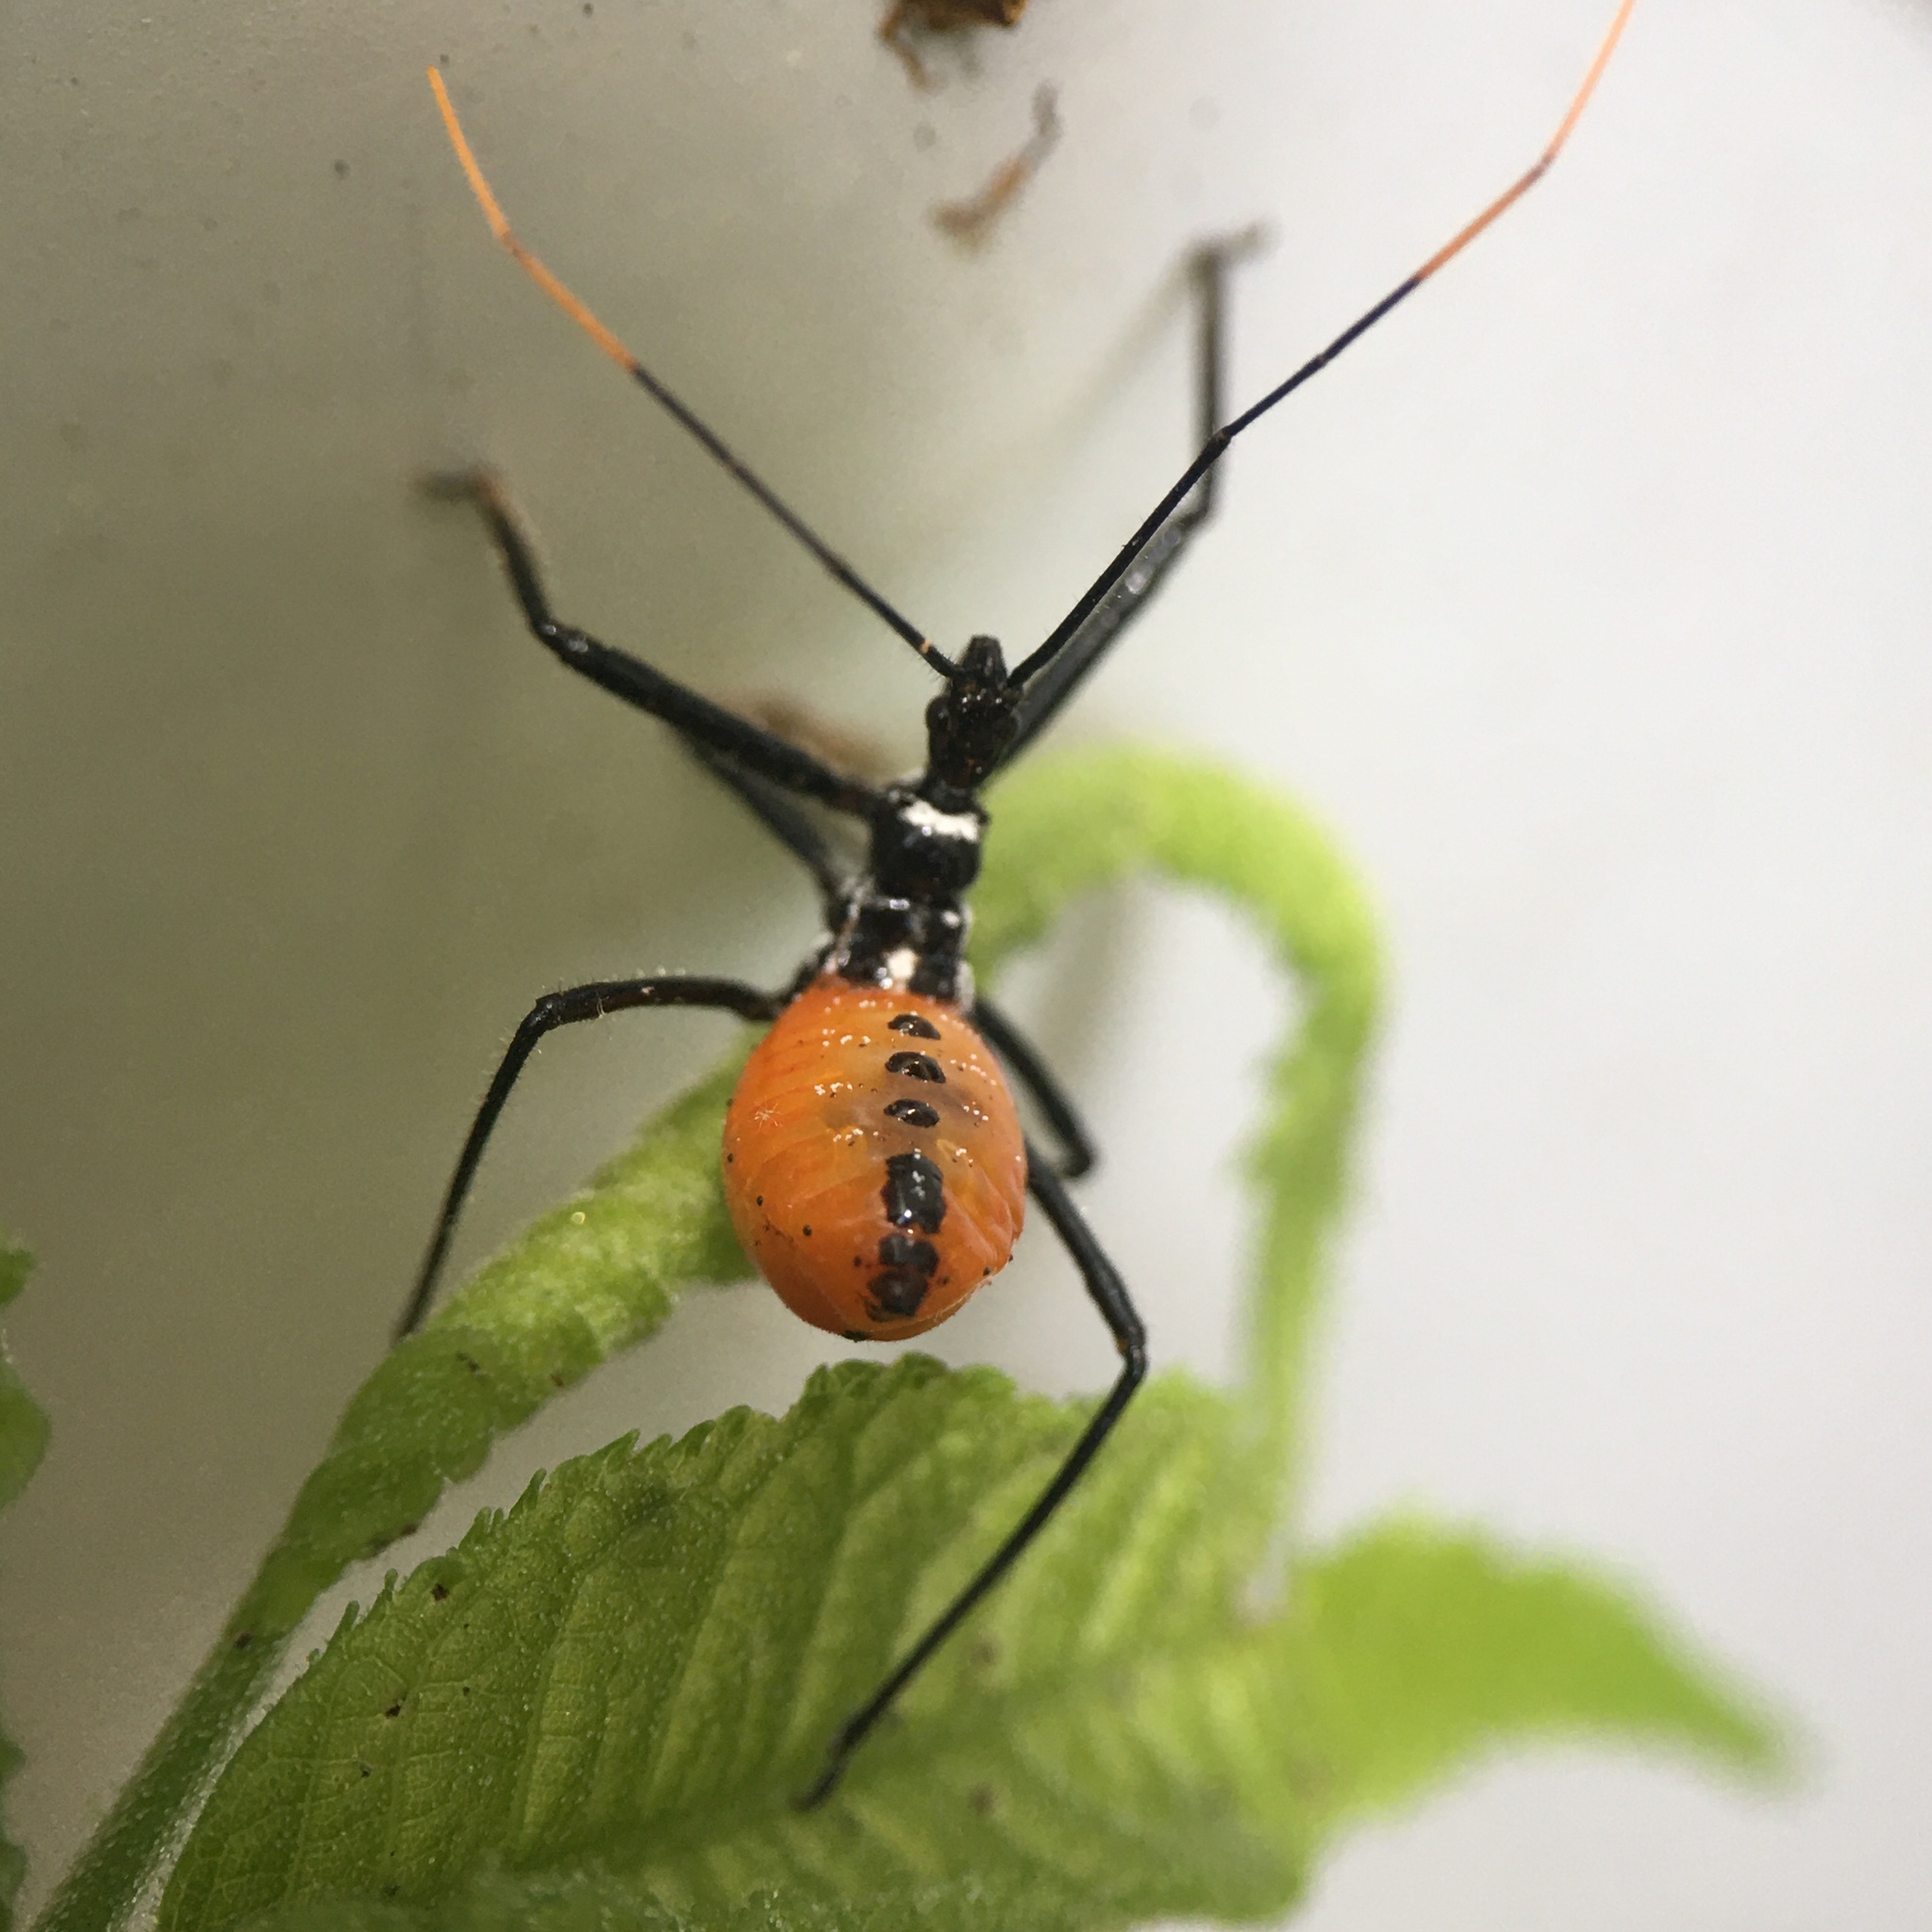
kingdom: Animalia
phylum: Arthropoda
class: Insecta
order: Hemiptera
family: Reduviidae
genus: Arilus
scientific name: Arilus cristatus
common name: North american wheel bug
